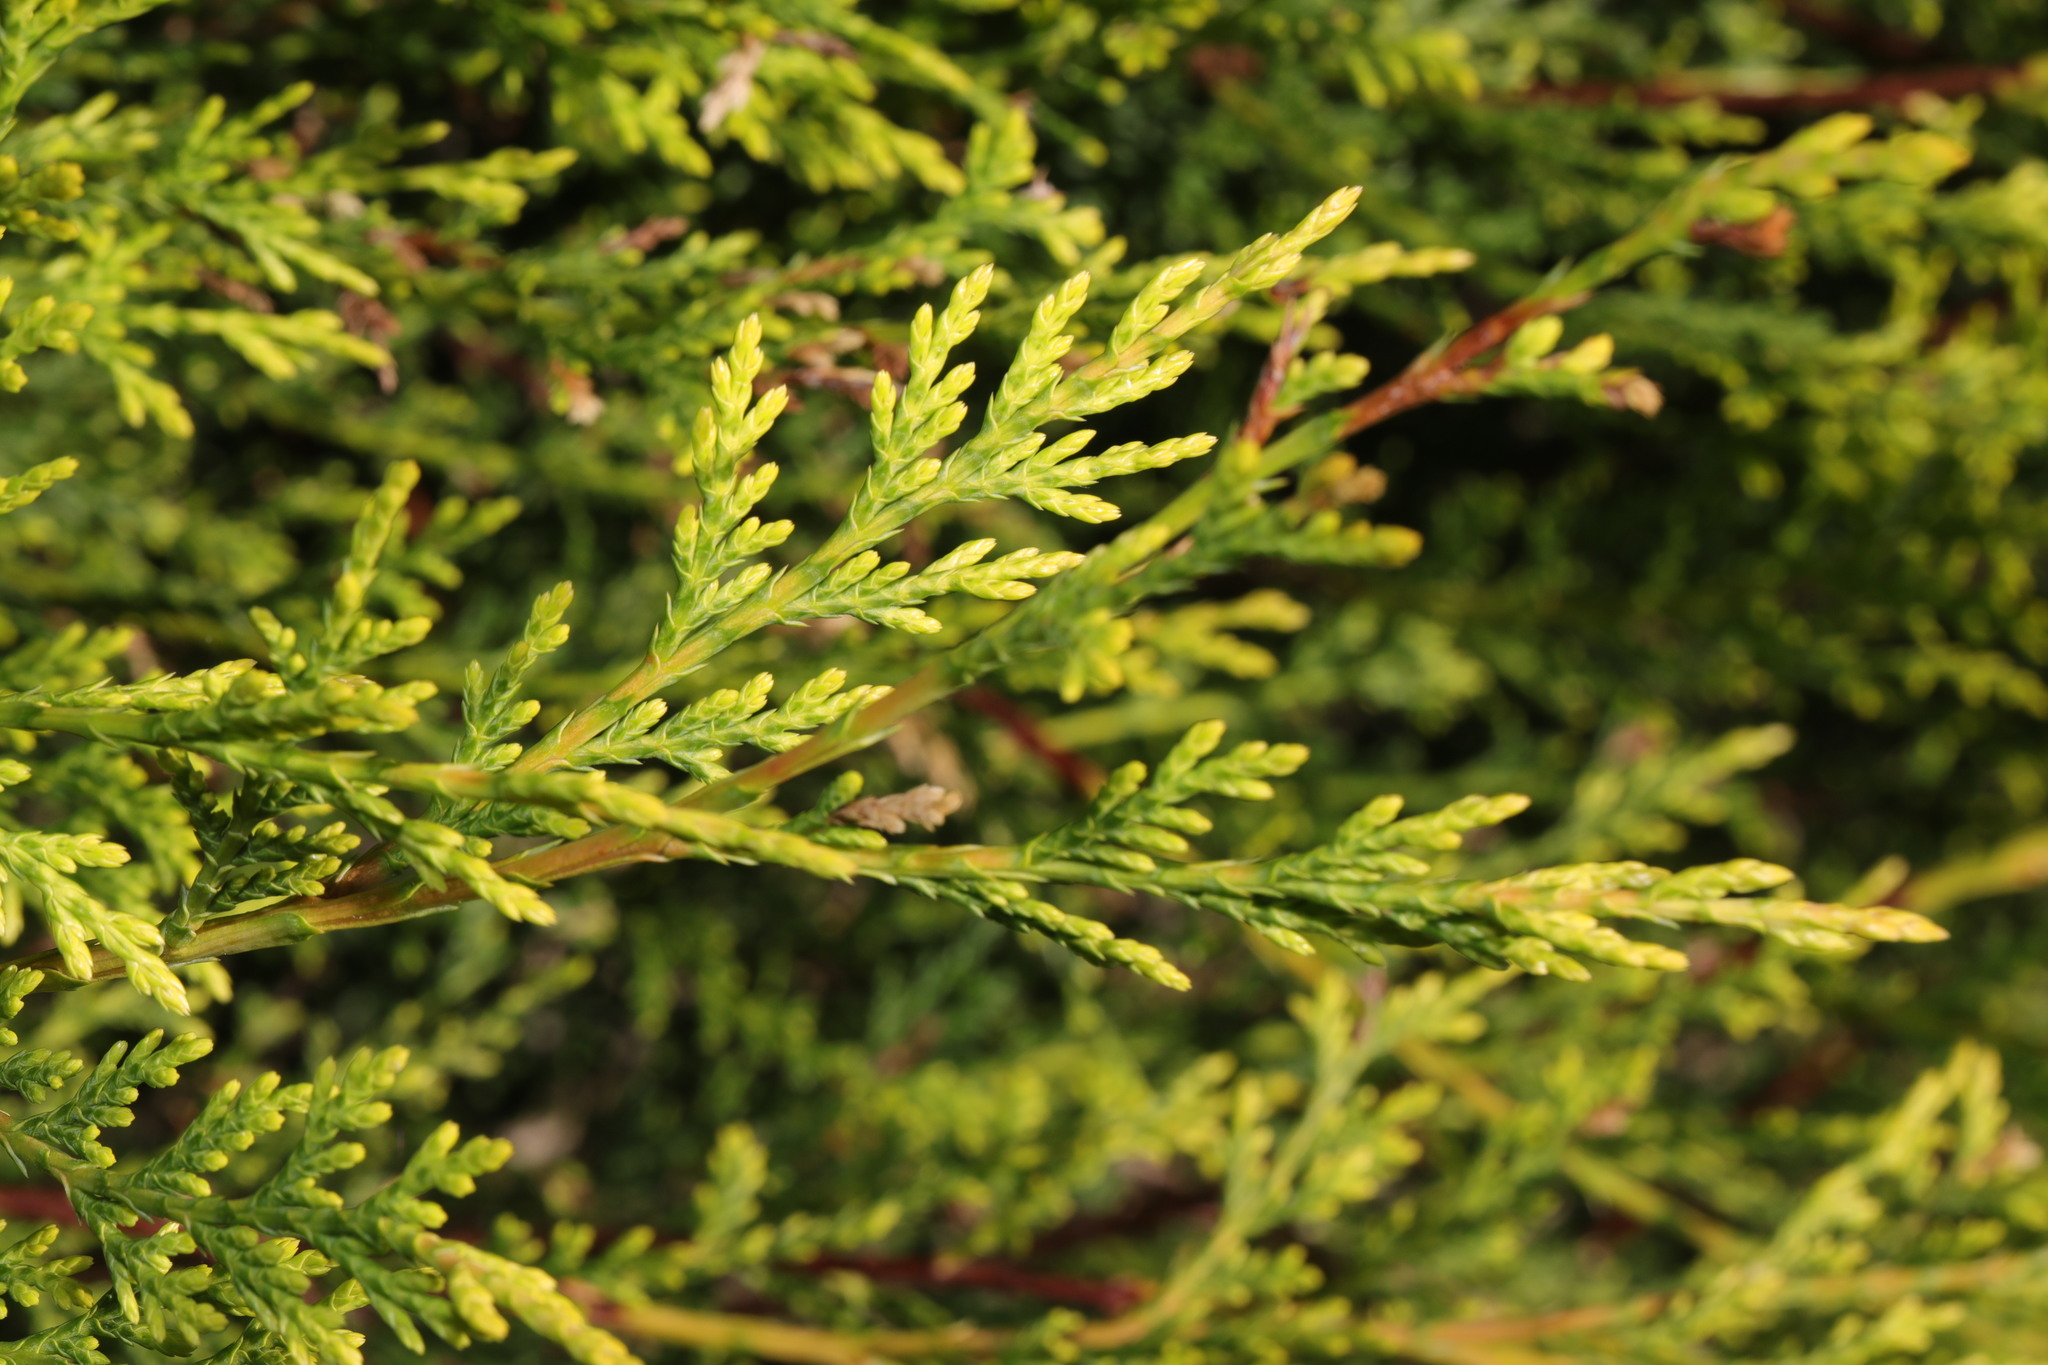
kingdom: Plantae
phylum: Tracheophyta
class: Pinopsida
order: Pinales
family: Cupressaceae
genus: Chamaecyparis
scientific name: Chamaecyparis lawsoniana
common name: Lawson's cypress
